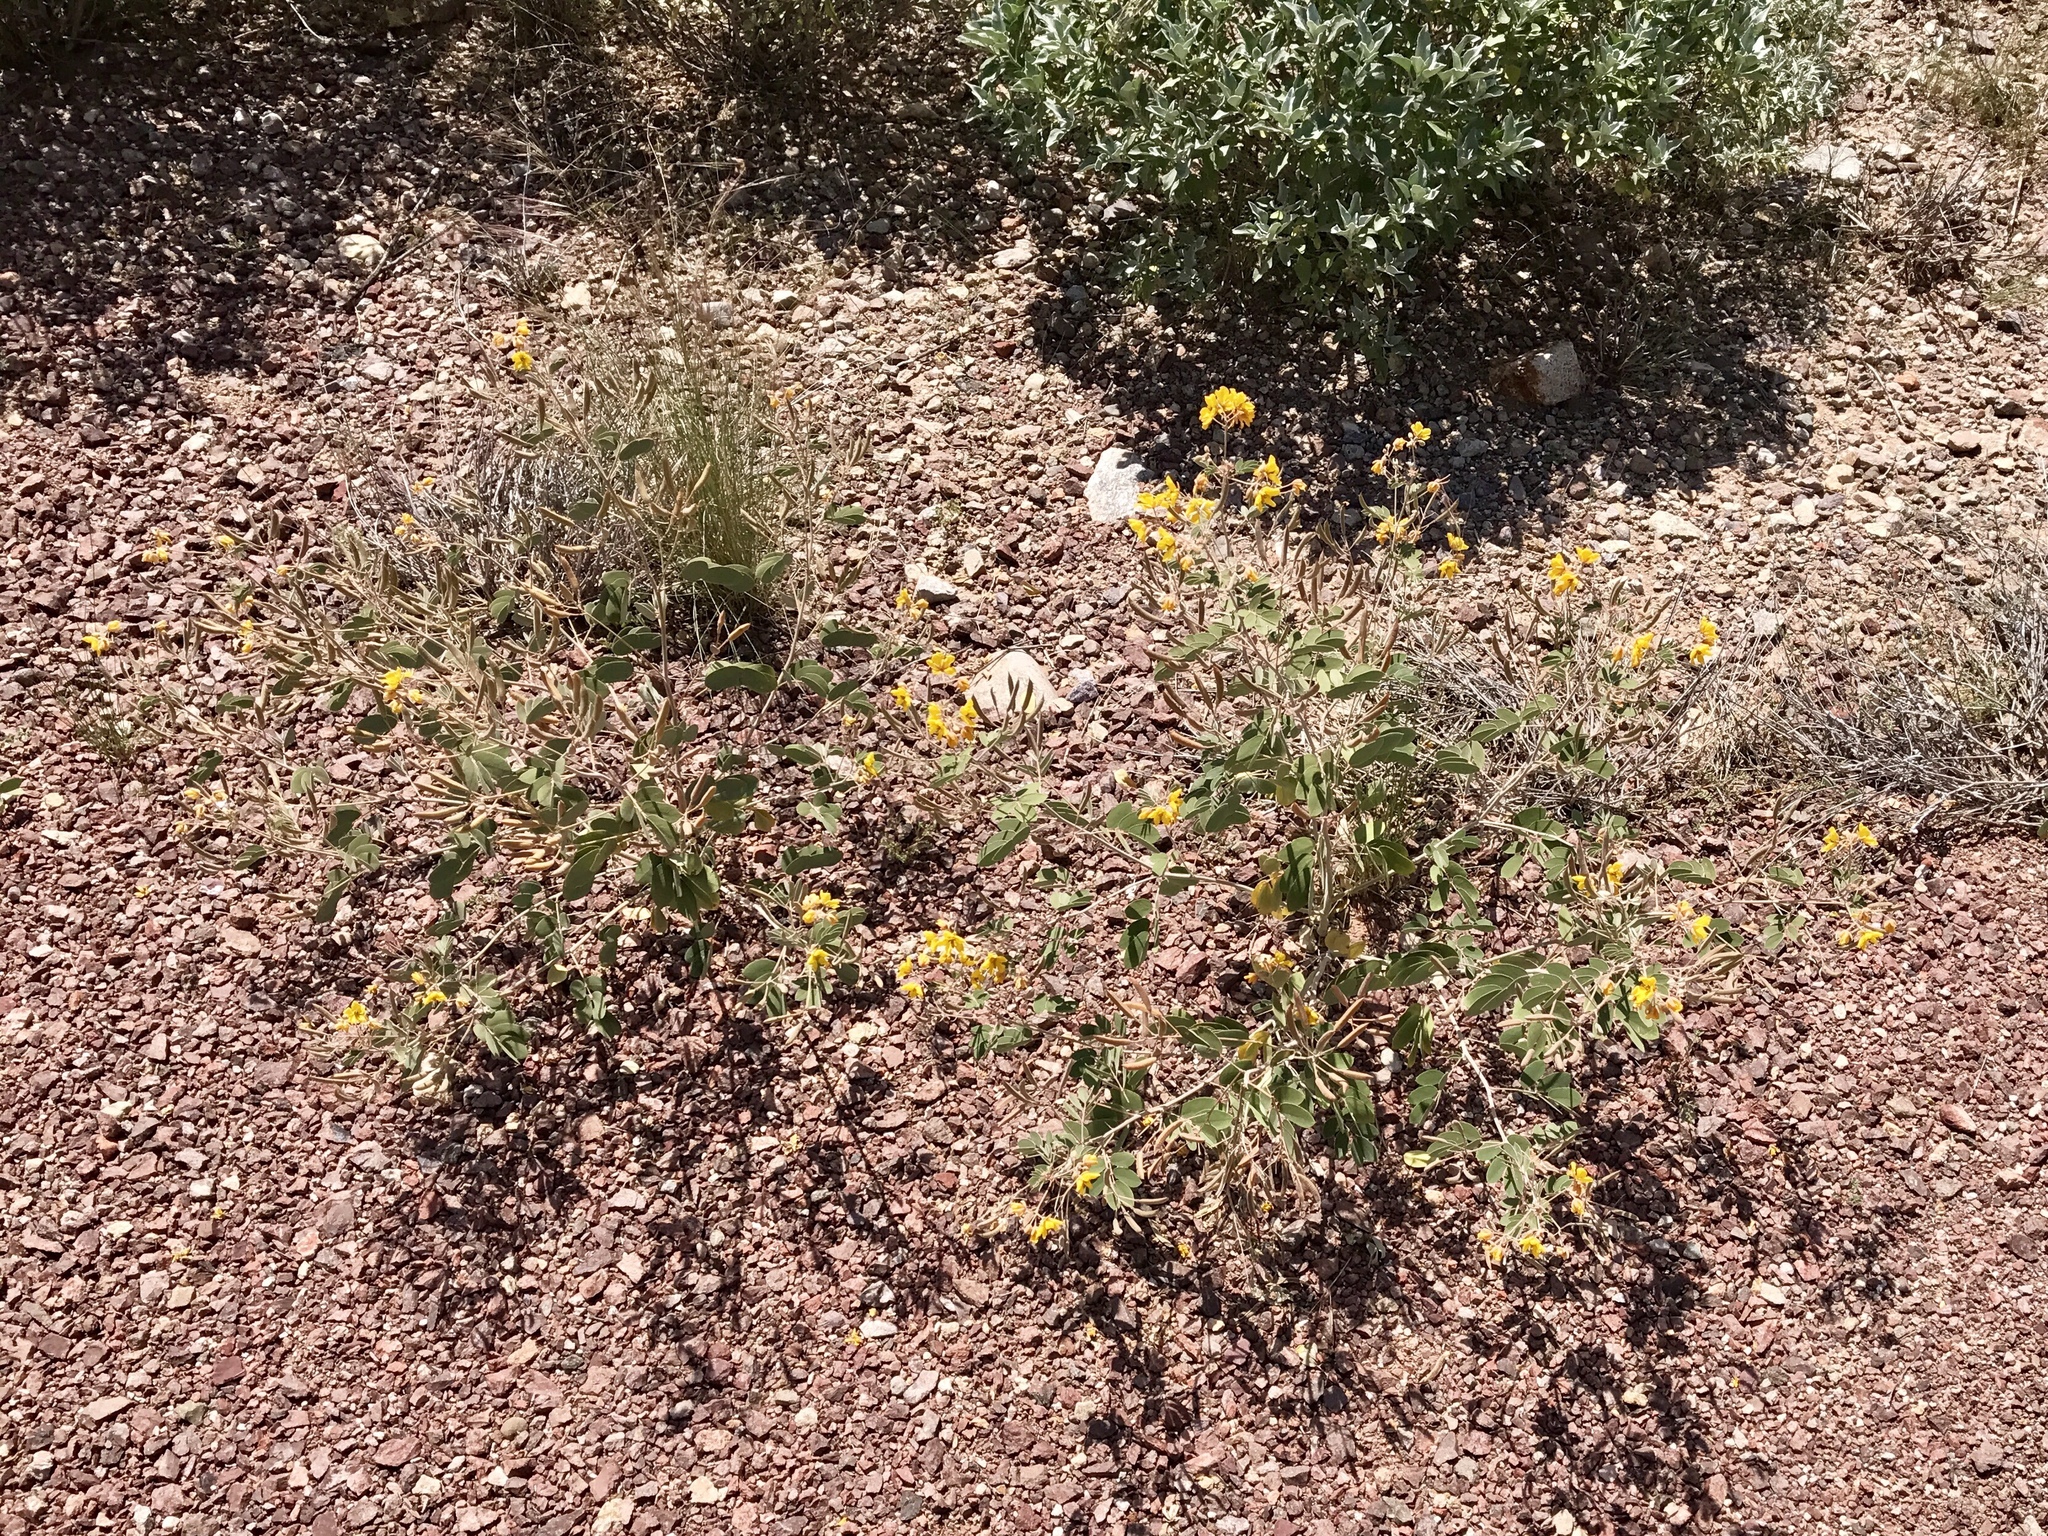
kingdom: Plantae
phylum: Tracheophyta
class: Magnoliopsida
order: Fabales
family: Fabaceae
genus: Senna
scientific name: Senna covesii
